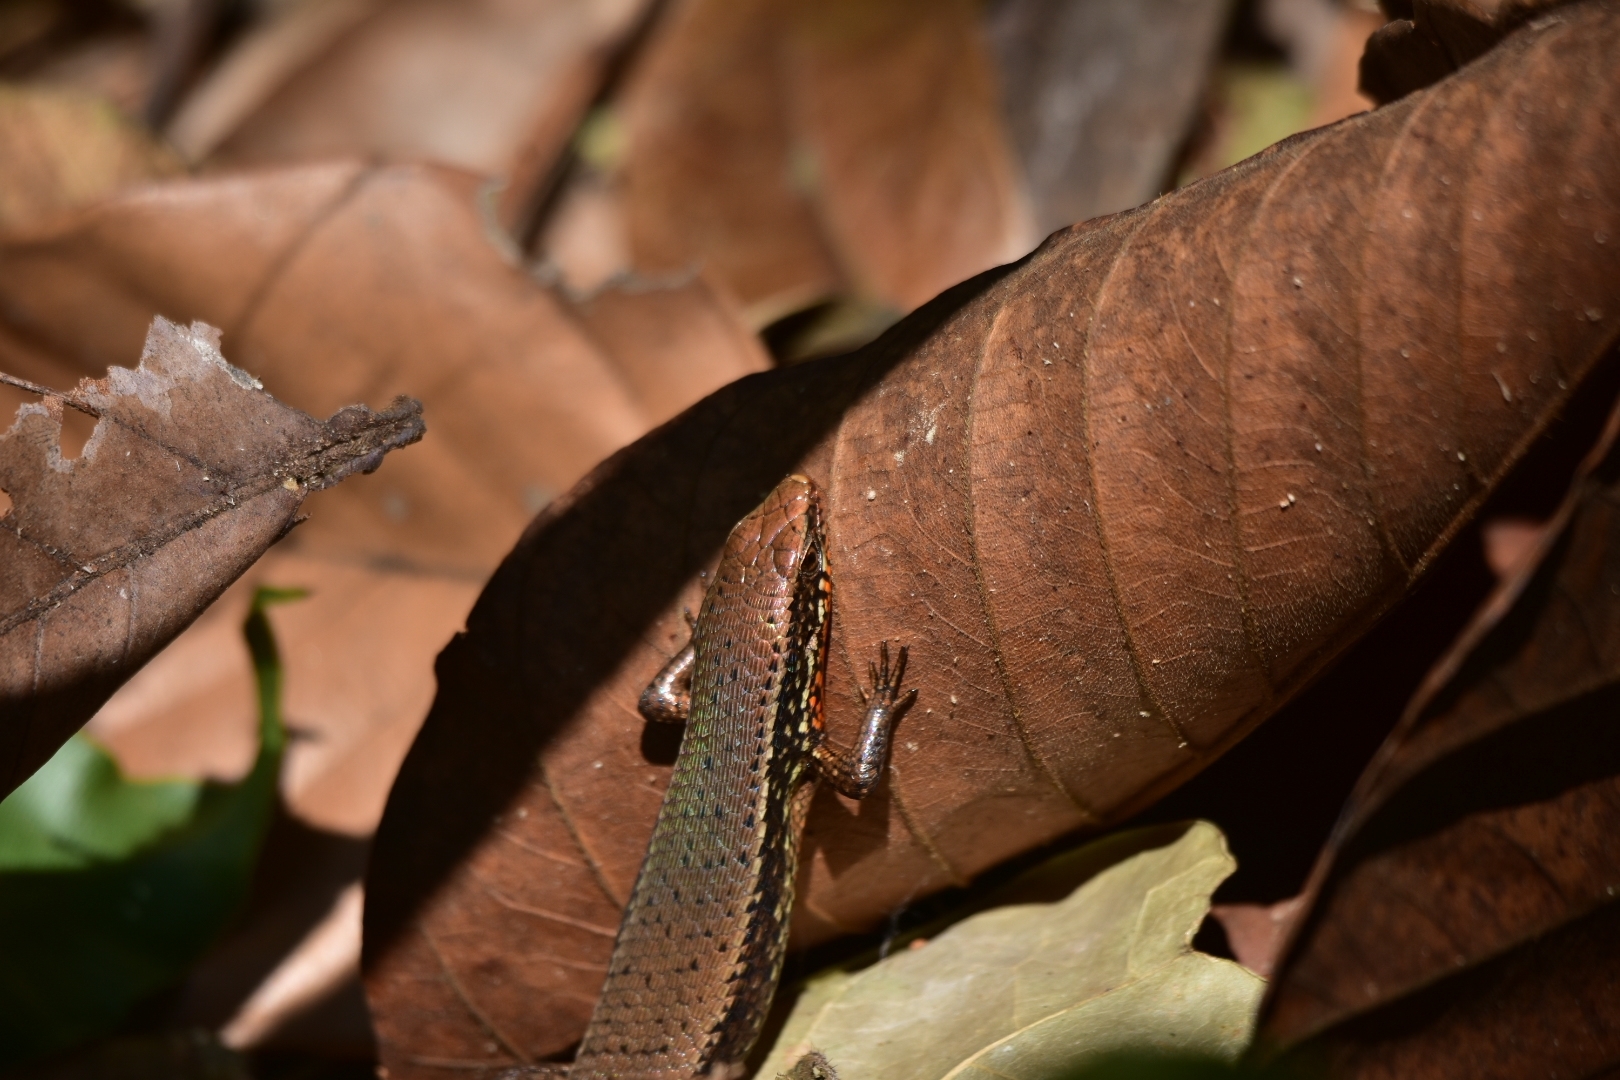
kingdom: Animalia
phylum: Chordata
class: Squamata
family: Scincidae
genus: Eutropis
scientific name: Eutropis macularia
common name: Bronze mabuya
